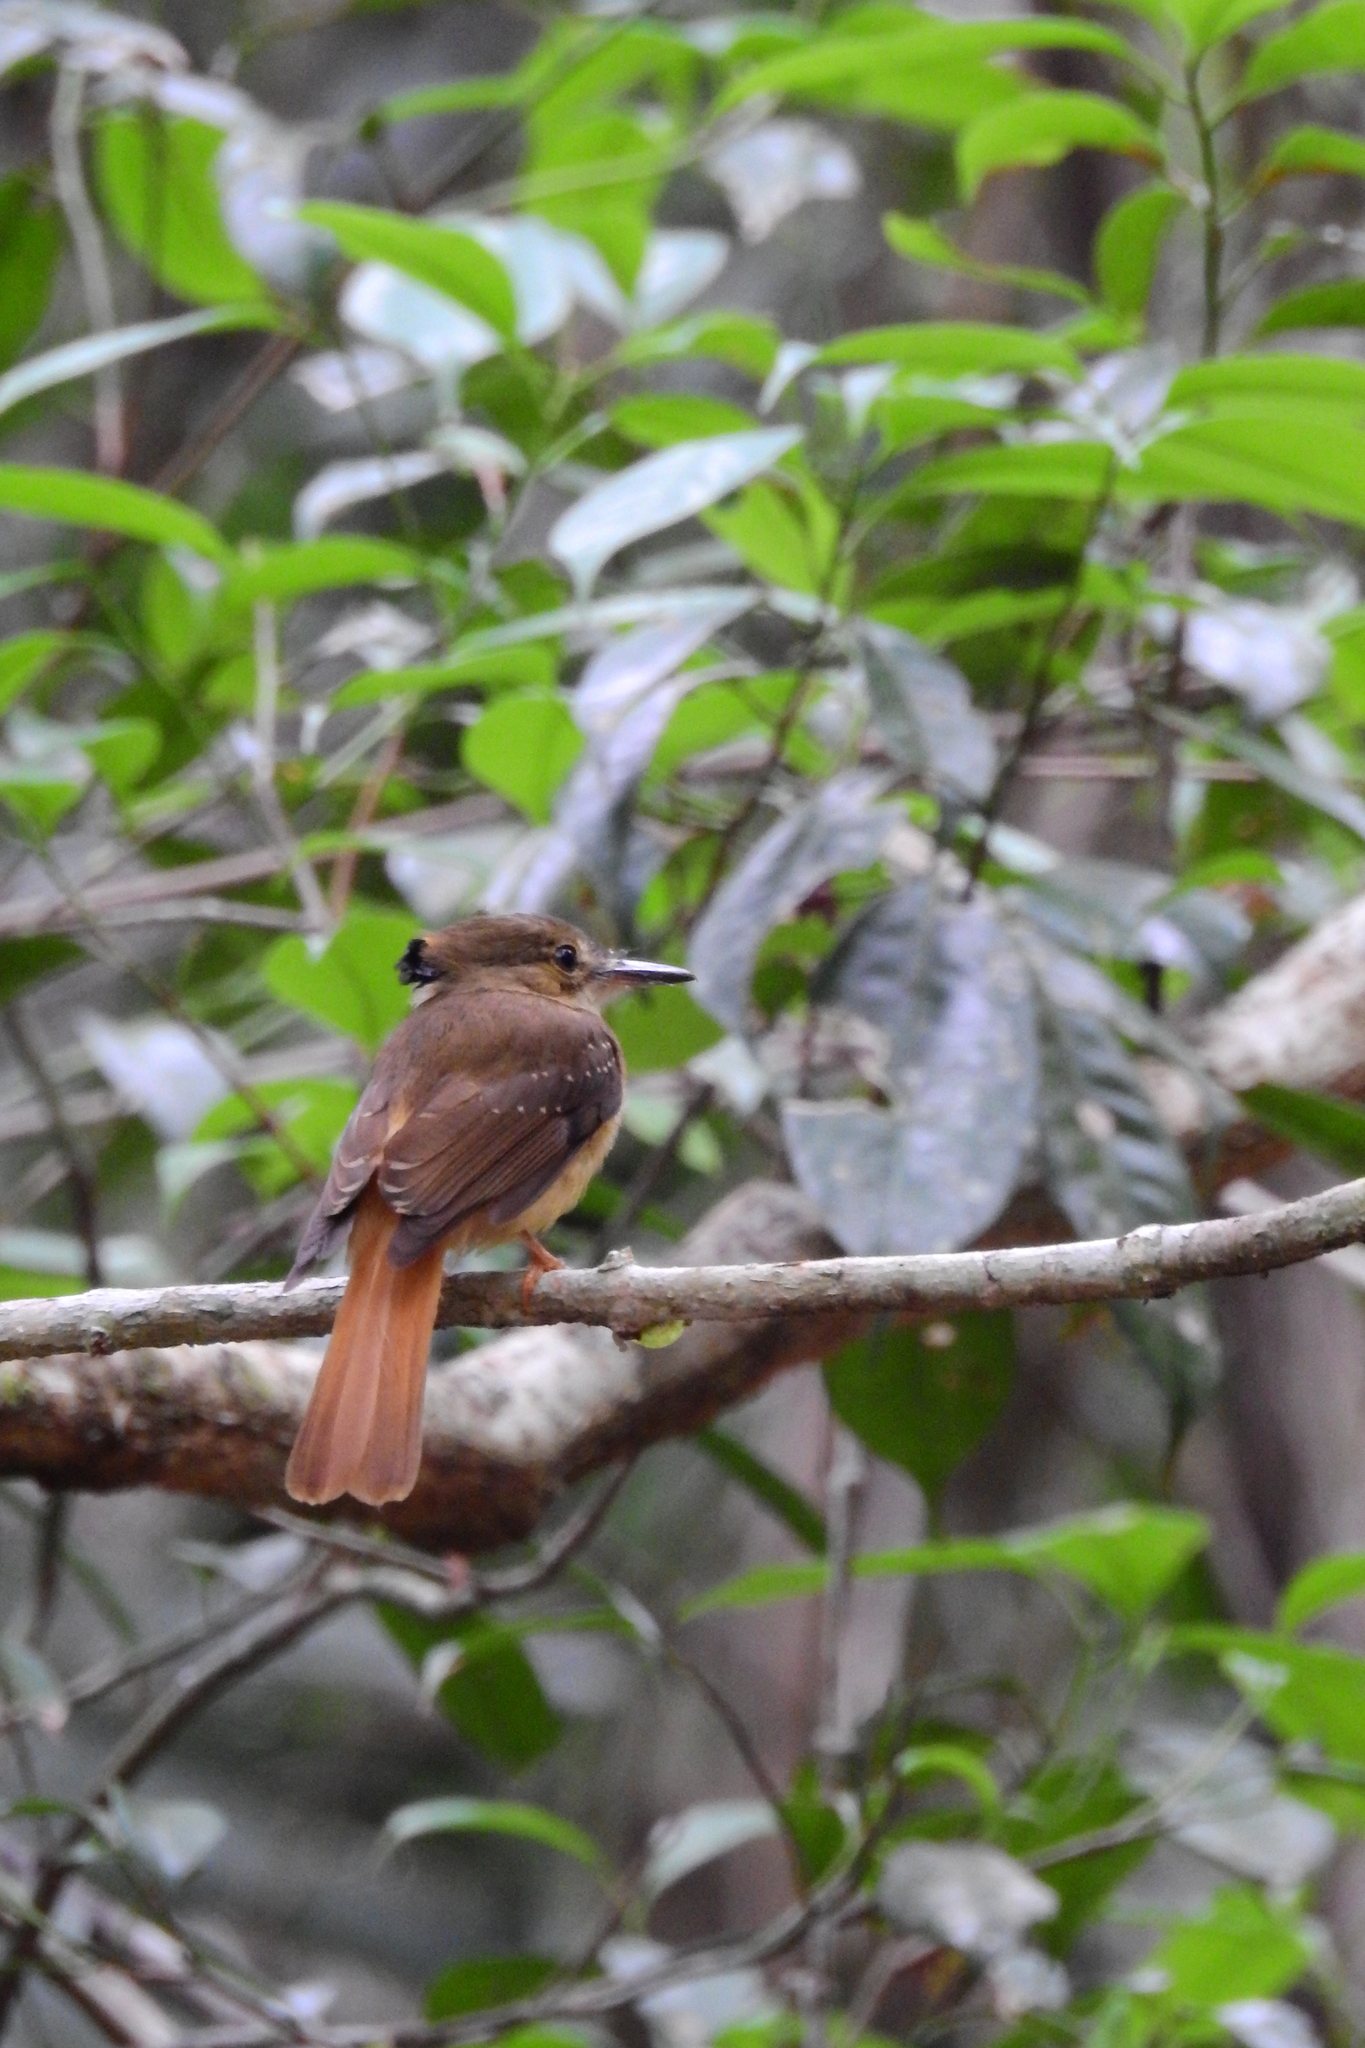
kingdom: Animalia
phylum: Chordata
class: Aves
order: Passeriformes
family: Tyrannidae
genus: Onychorhynchus
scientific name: Onychorhynchus coronatus
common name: Royal flycatcher
